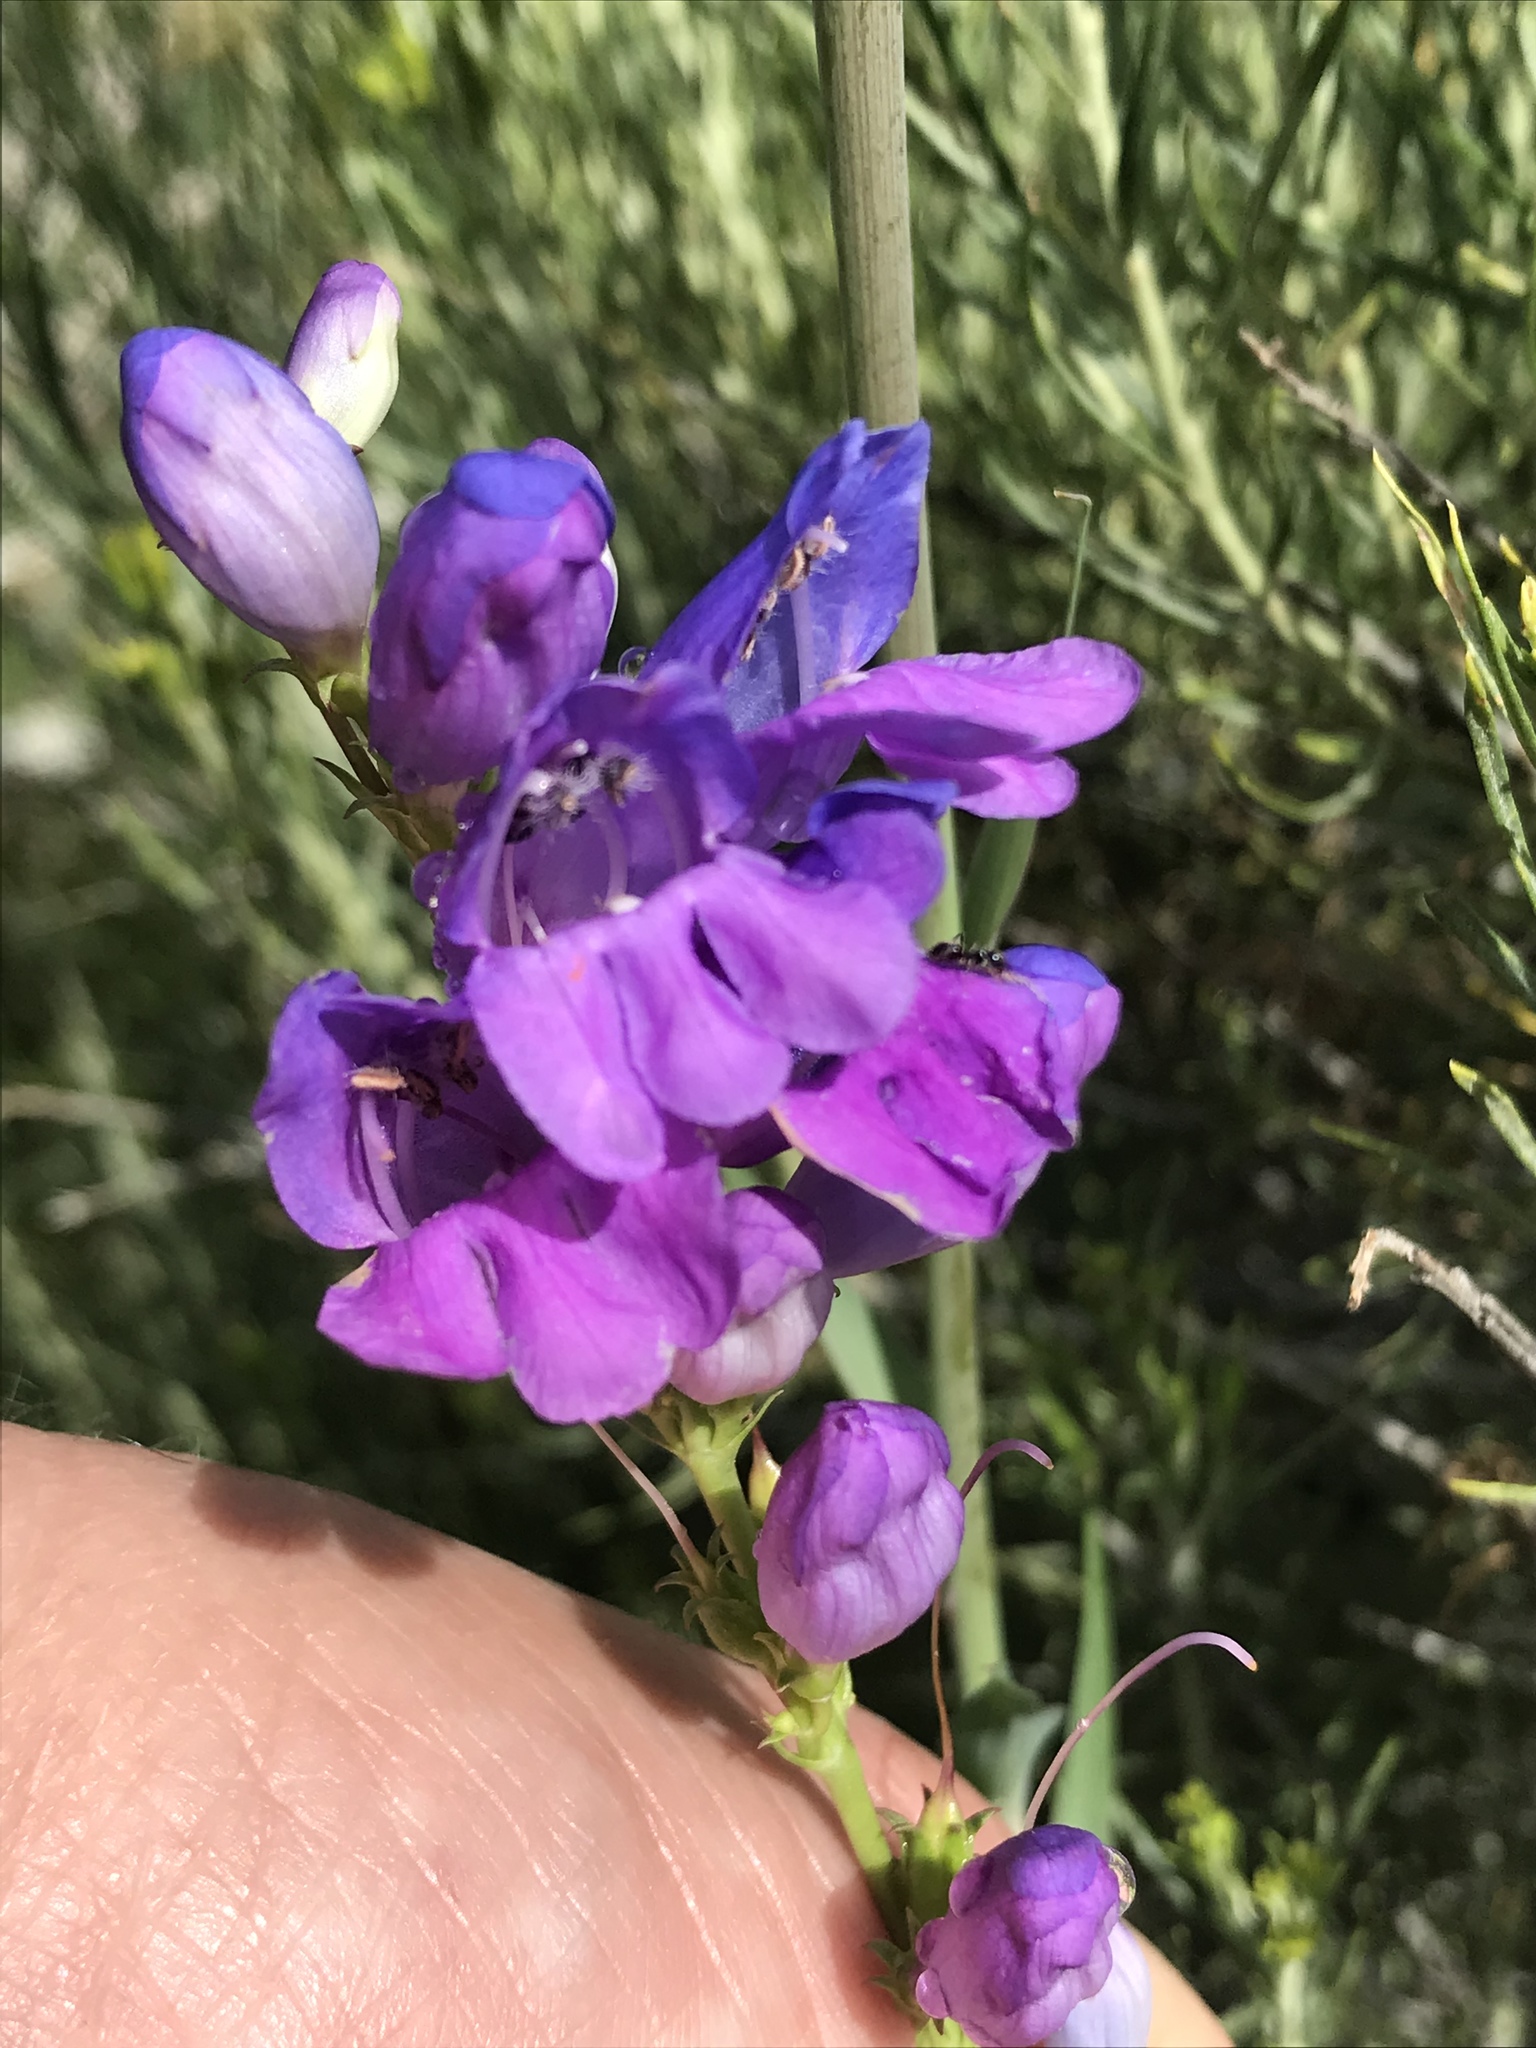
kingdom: Plantae
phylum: Tracheophyta
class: Magnoliopsida
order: Lamiales
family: Plantaginaceae
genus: Penstemon
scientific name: Penstemon strictus
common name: Rocky mountain penstemon
